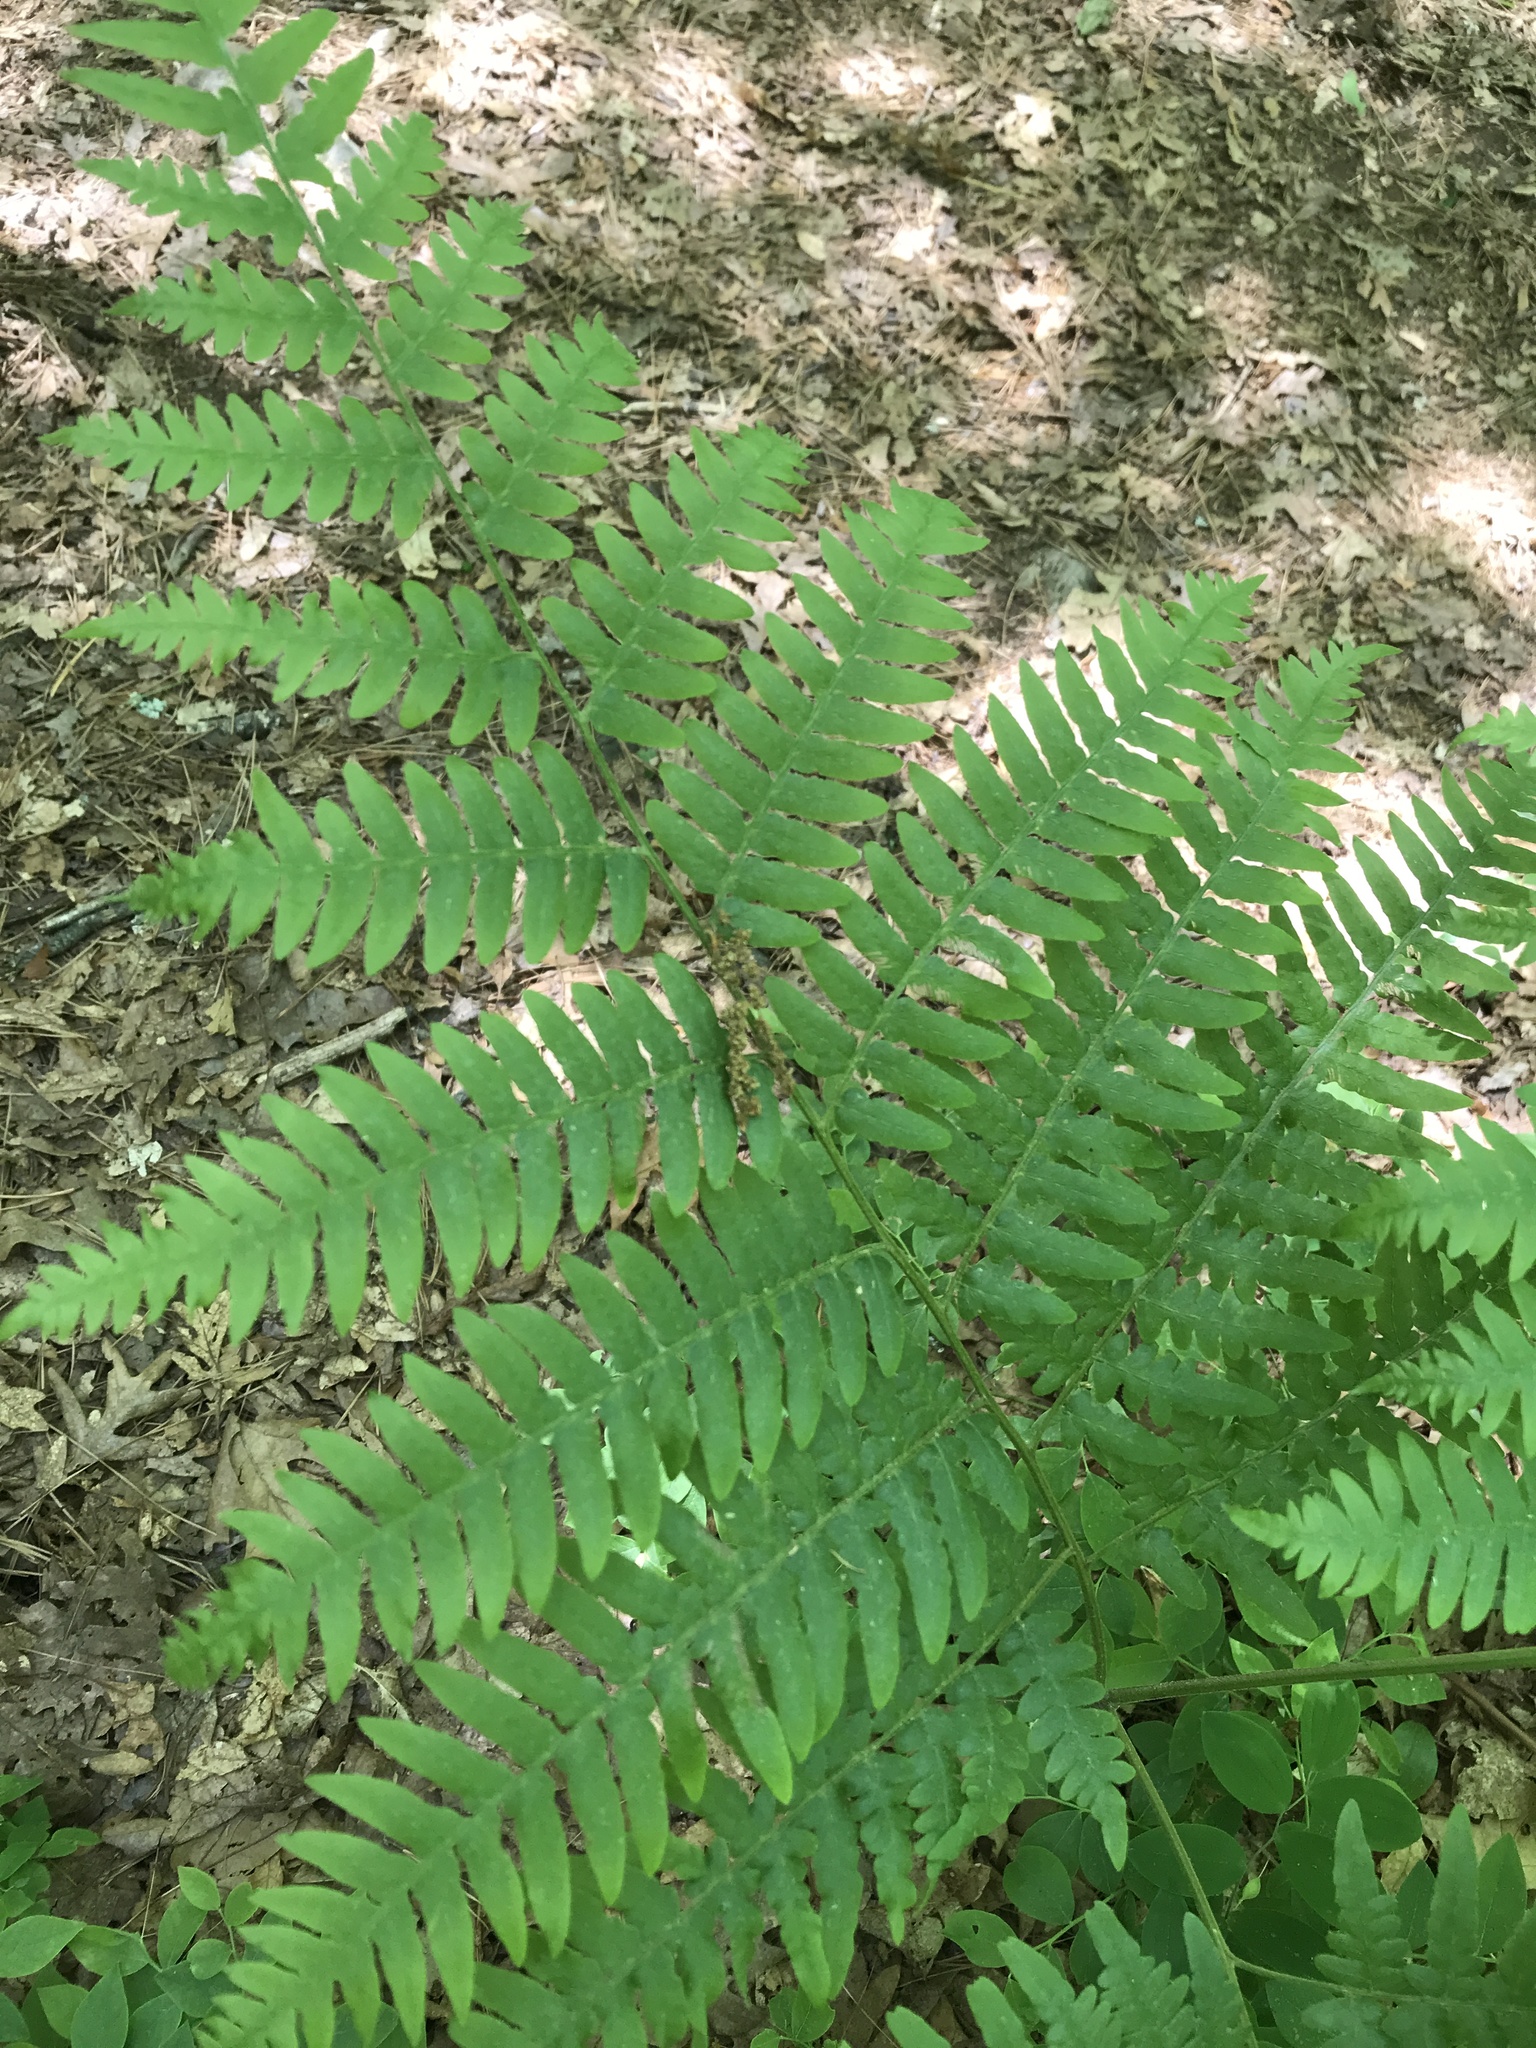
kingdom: Plantae
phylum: Tracheophyta
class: Polypodiopsida
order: Polypodiales
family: Dennstaedtiaceae
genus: Pteridium
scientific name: Pteridium aquilinum
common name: Bracken
